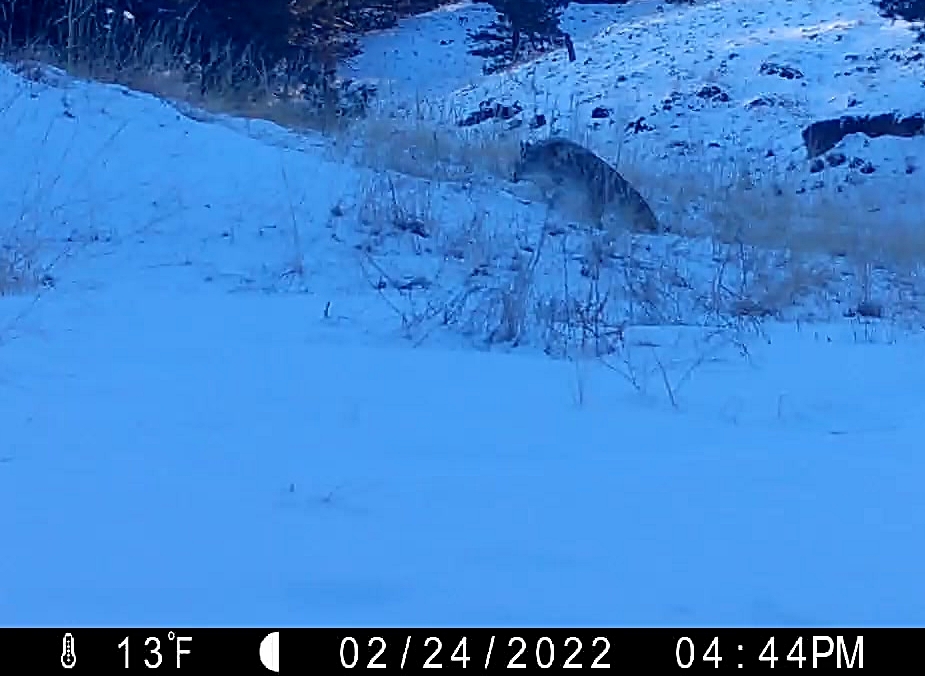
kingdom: Animalia
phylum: Chordata
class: Mammalia
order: Carnivora
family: Canidae
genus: Canis
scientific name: Canis latrans
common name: Coyote
